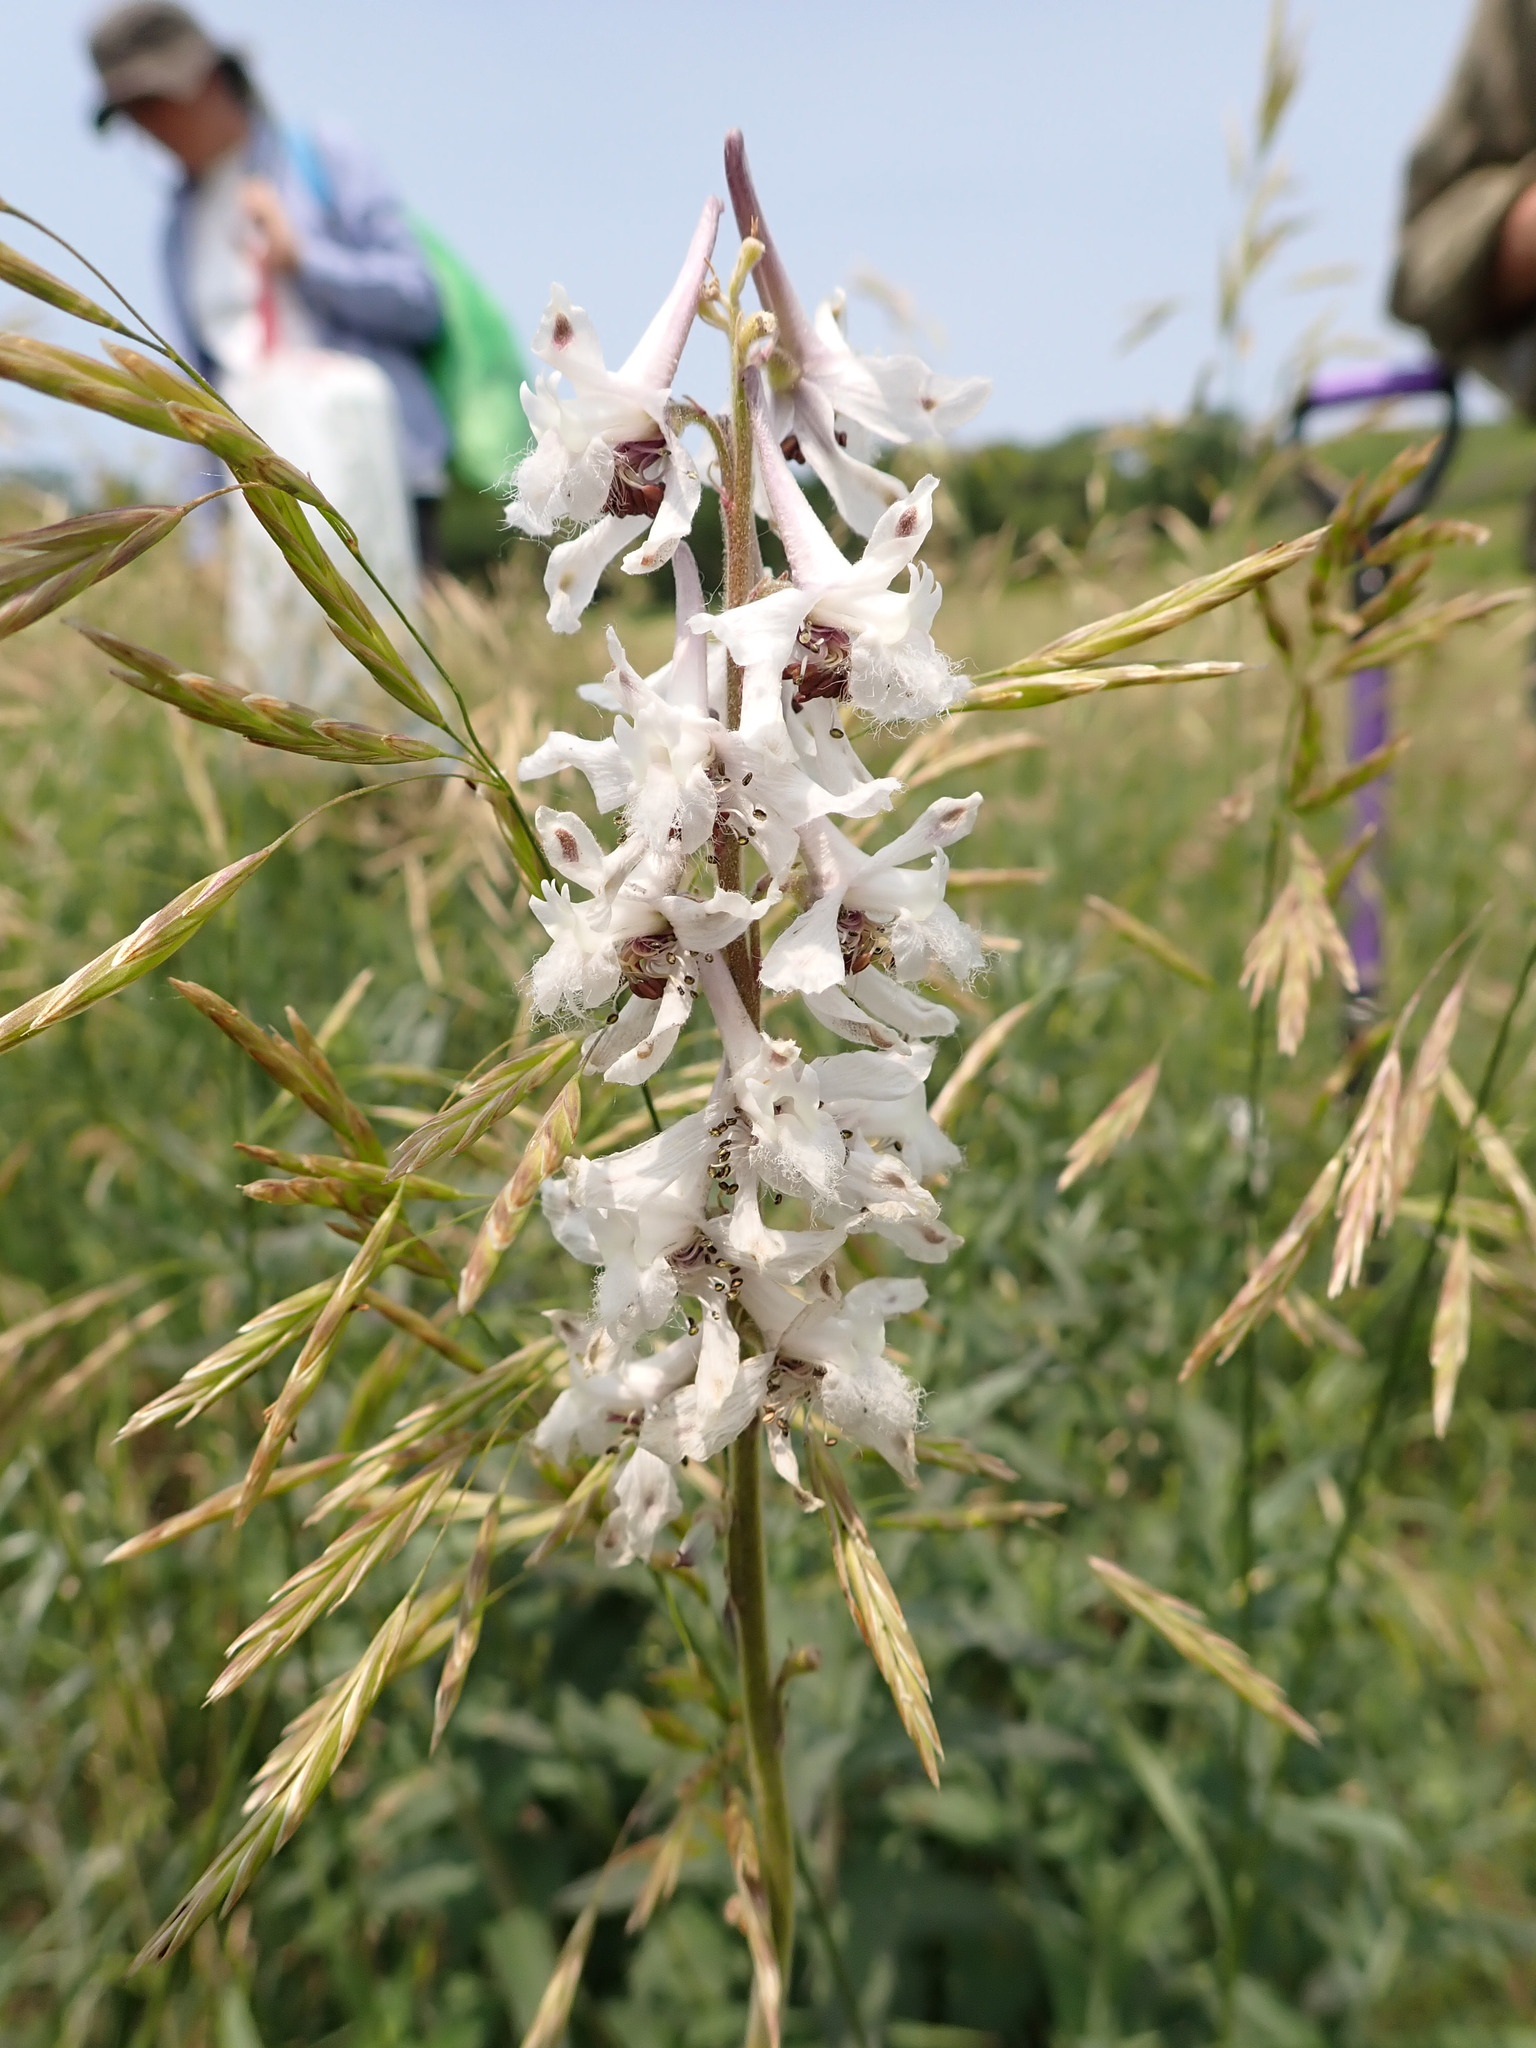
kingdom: Plantae
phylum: Tracheophyta
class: Magnoliopsida
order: Ranunculales
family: Ranunculaceae
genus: Delphinium
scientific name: Delphinium carolinianum
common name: Carolina larkspur
